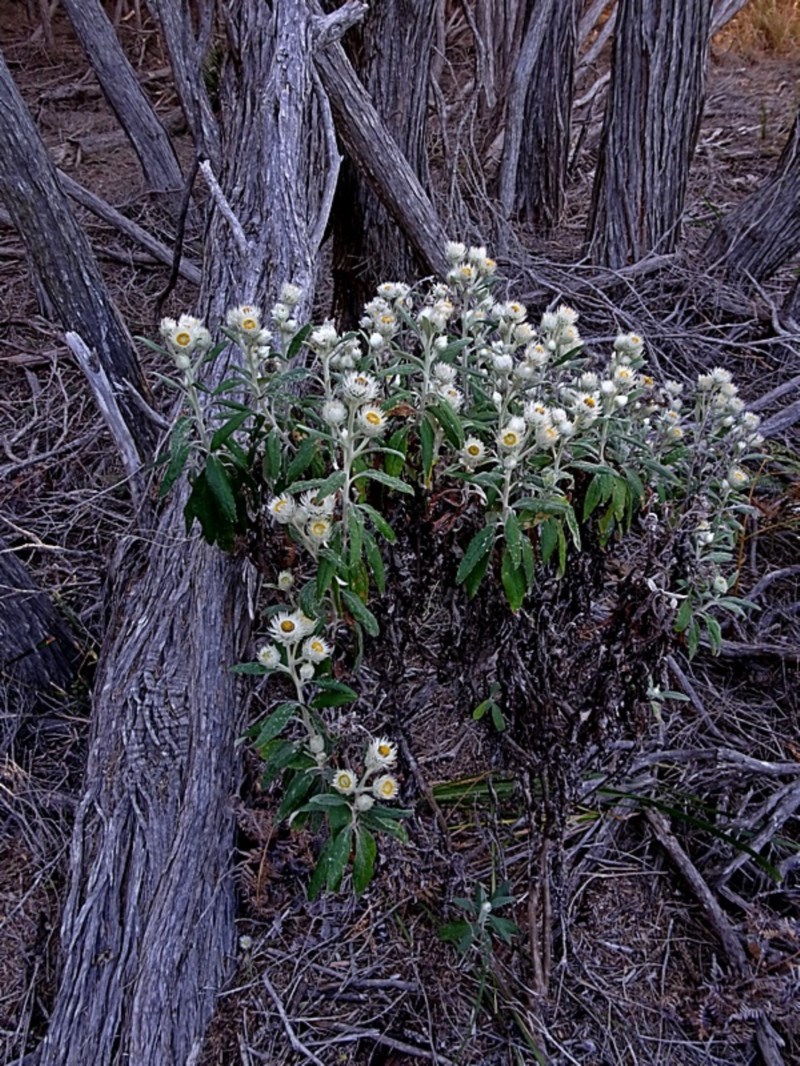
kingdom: Plantae
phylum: Tracheophyta
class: Magnoliopsida
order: Asterales
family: Asteraceae
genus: Leucozoma
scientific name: Leucozoma elatum
